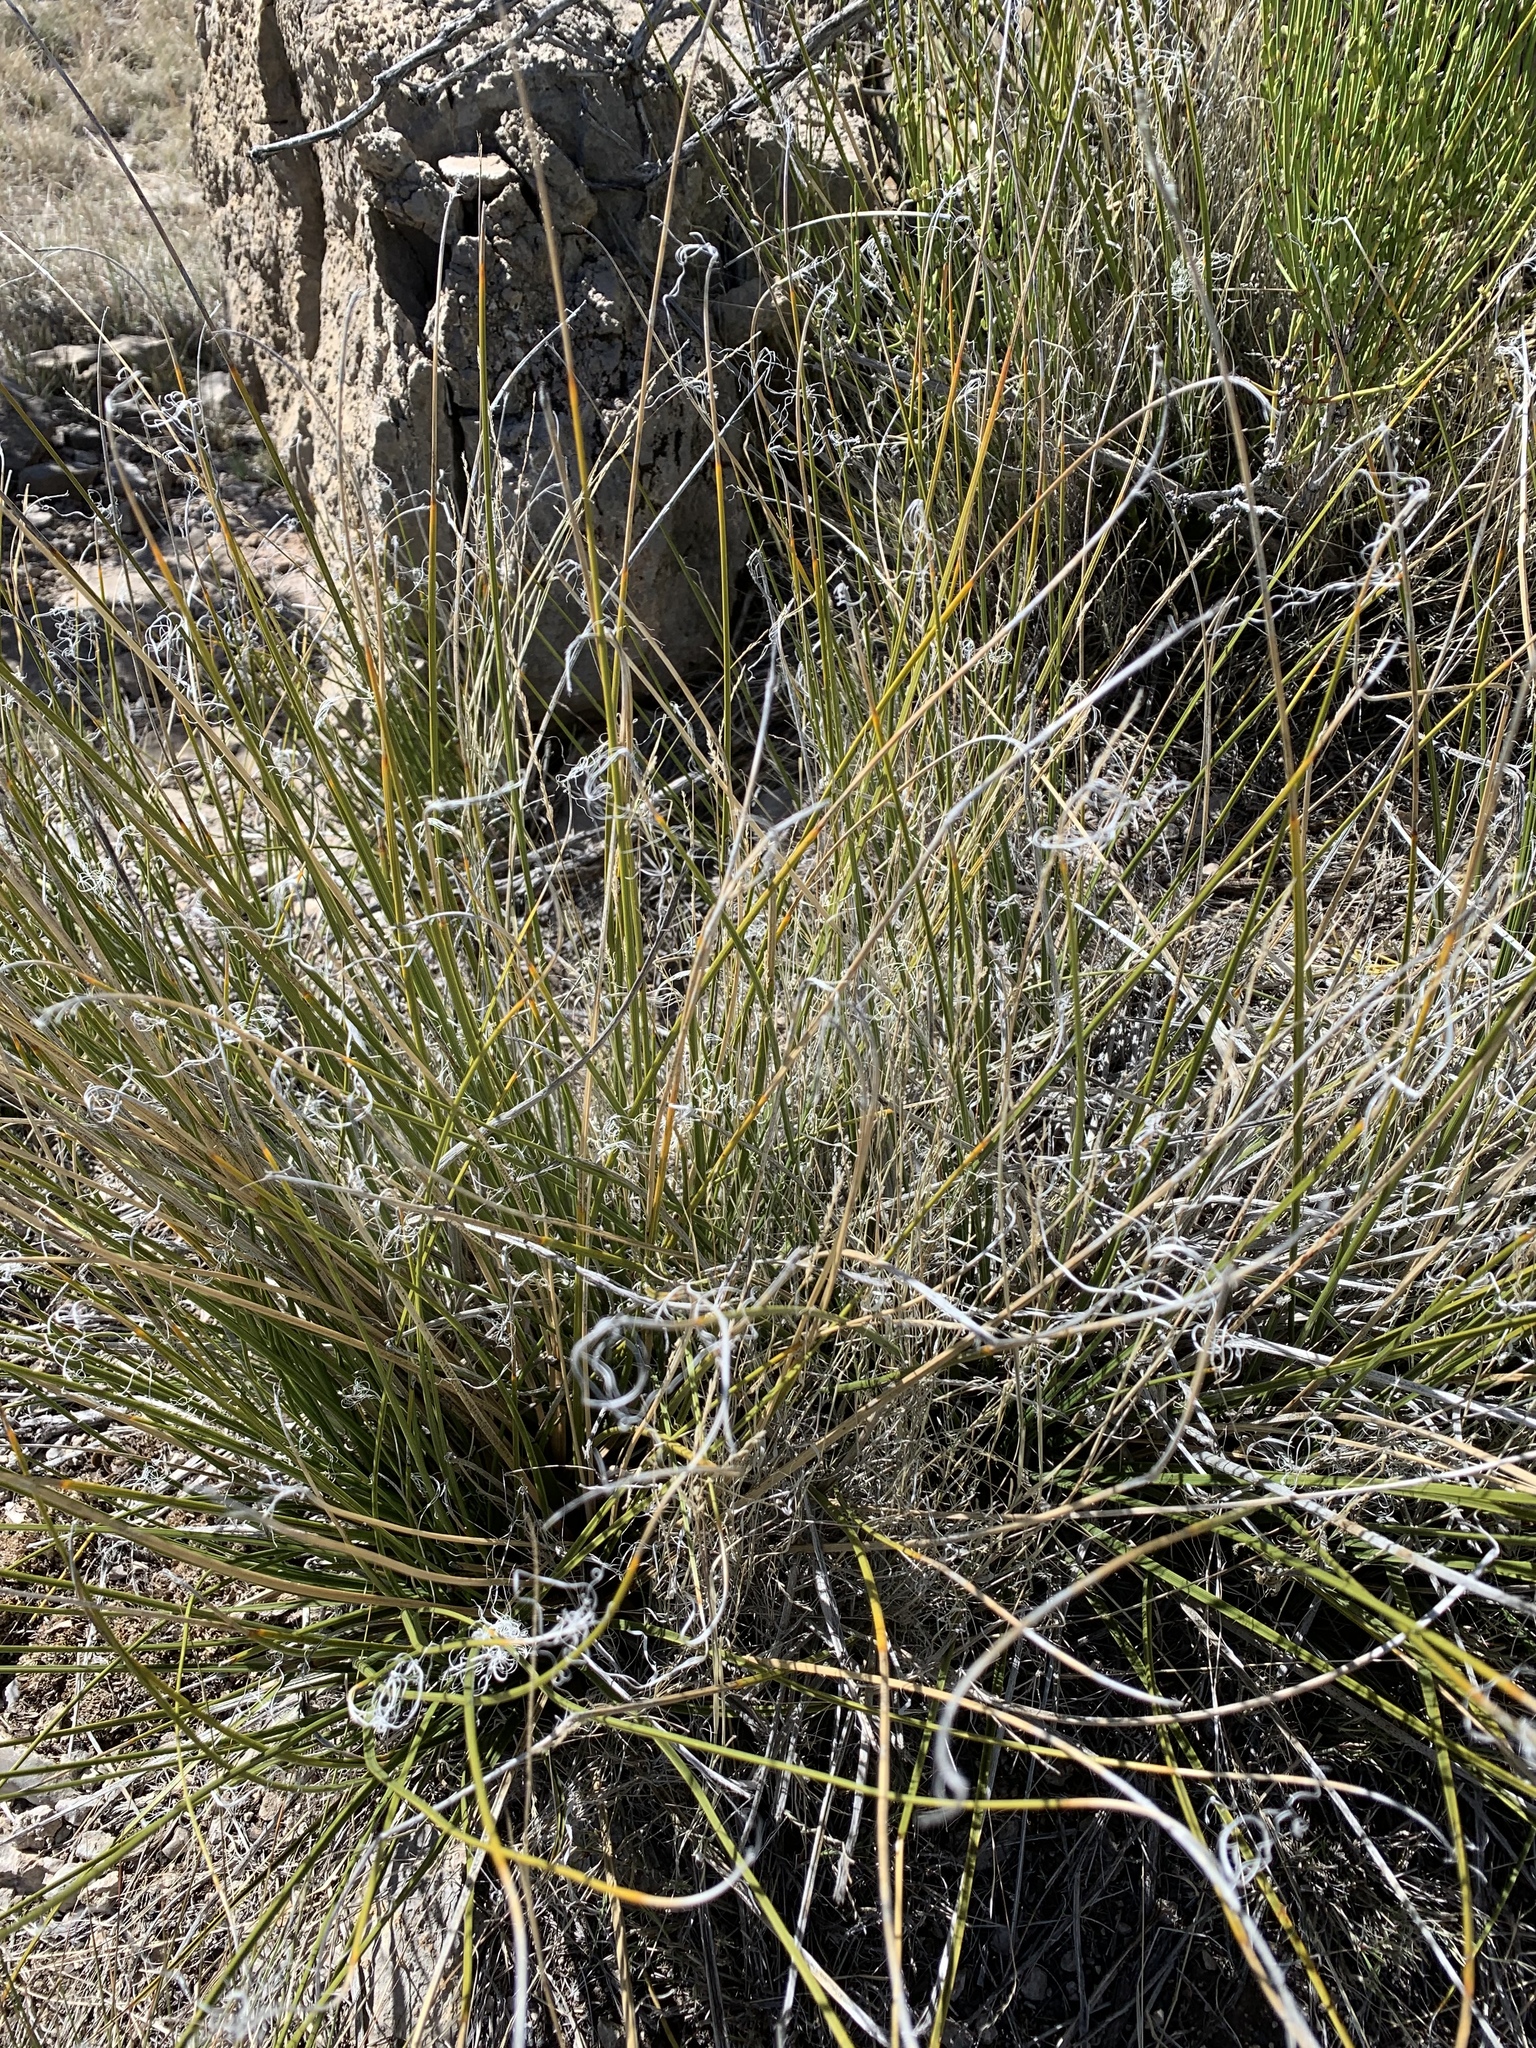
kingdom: Plantae
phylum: Tracheophyta
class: Liliopsida
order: Asparagales
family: Asparagaceae
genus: Nolina
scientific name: Nolina texana
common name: Texas sacahuiste
